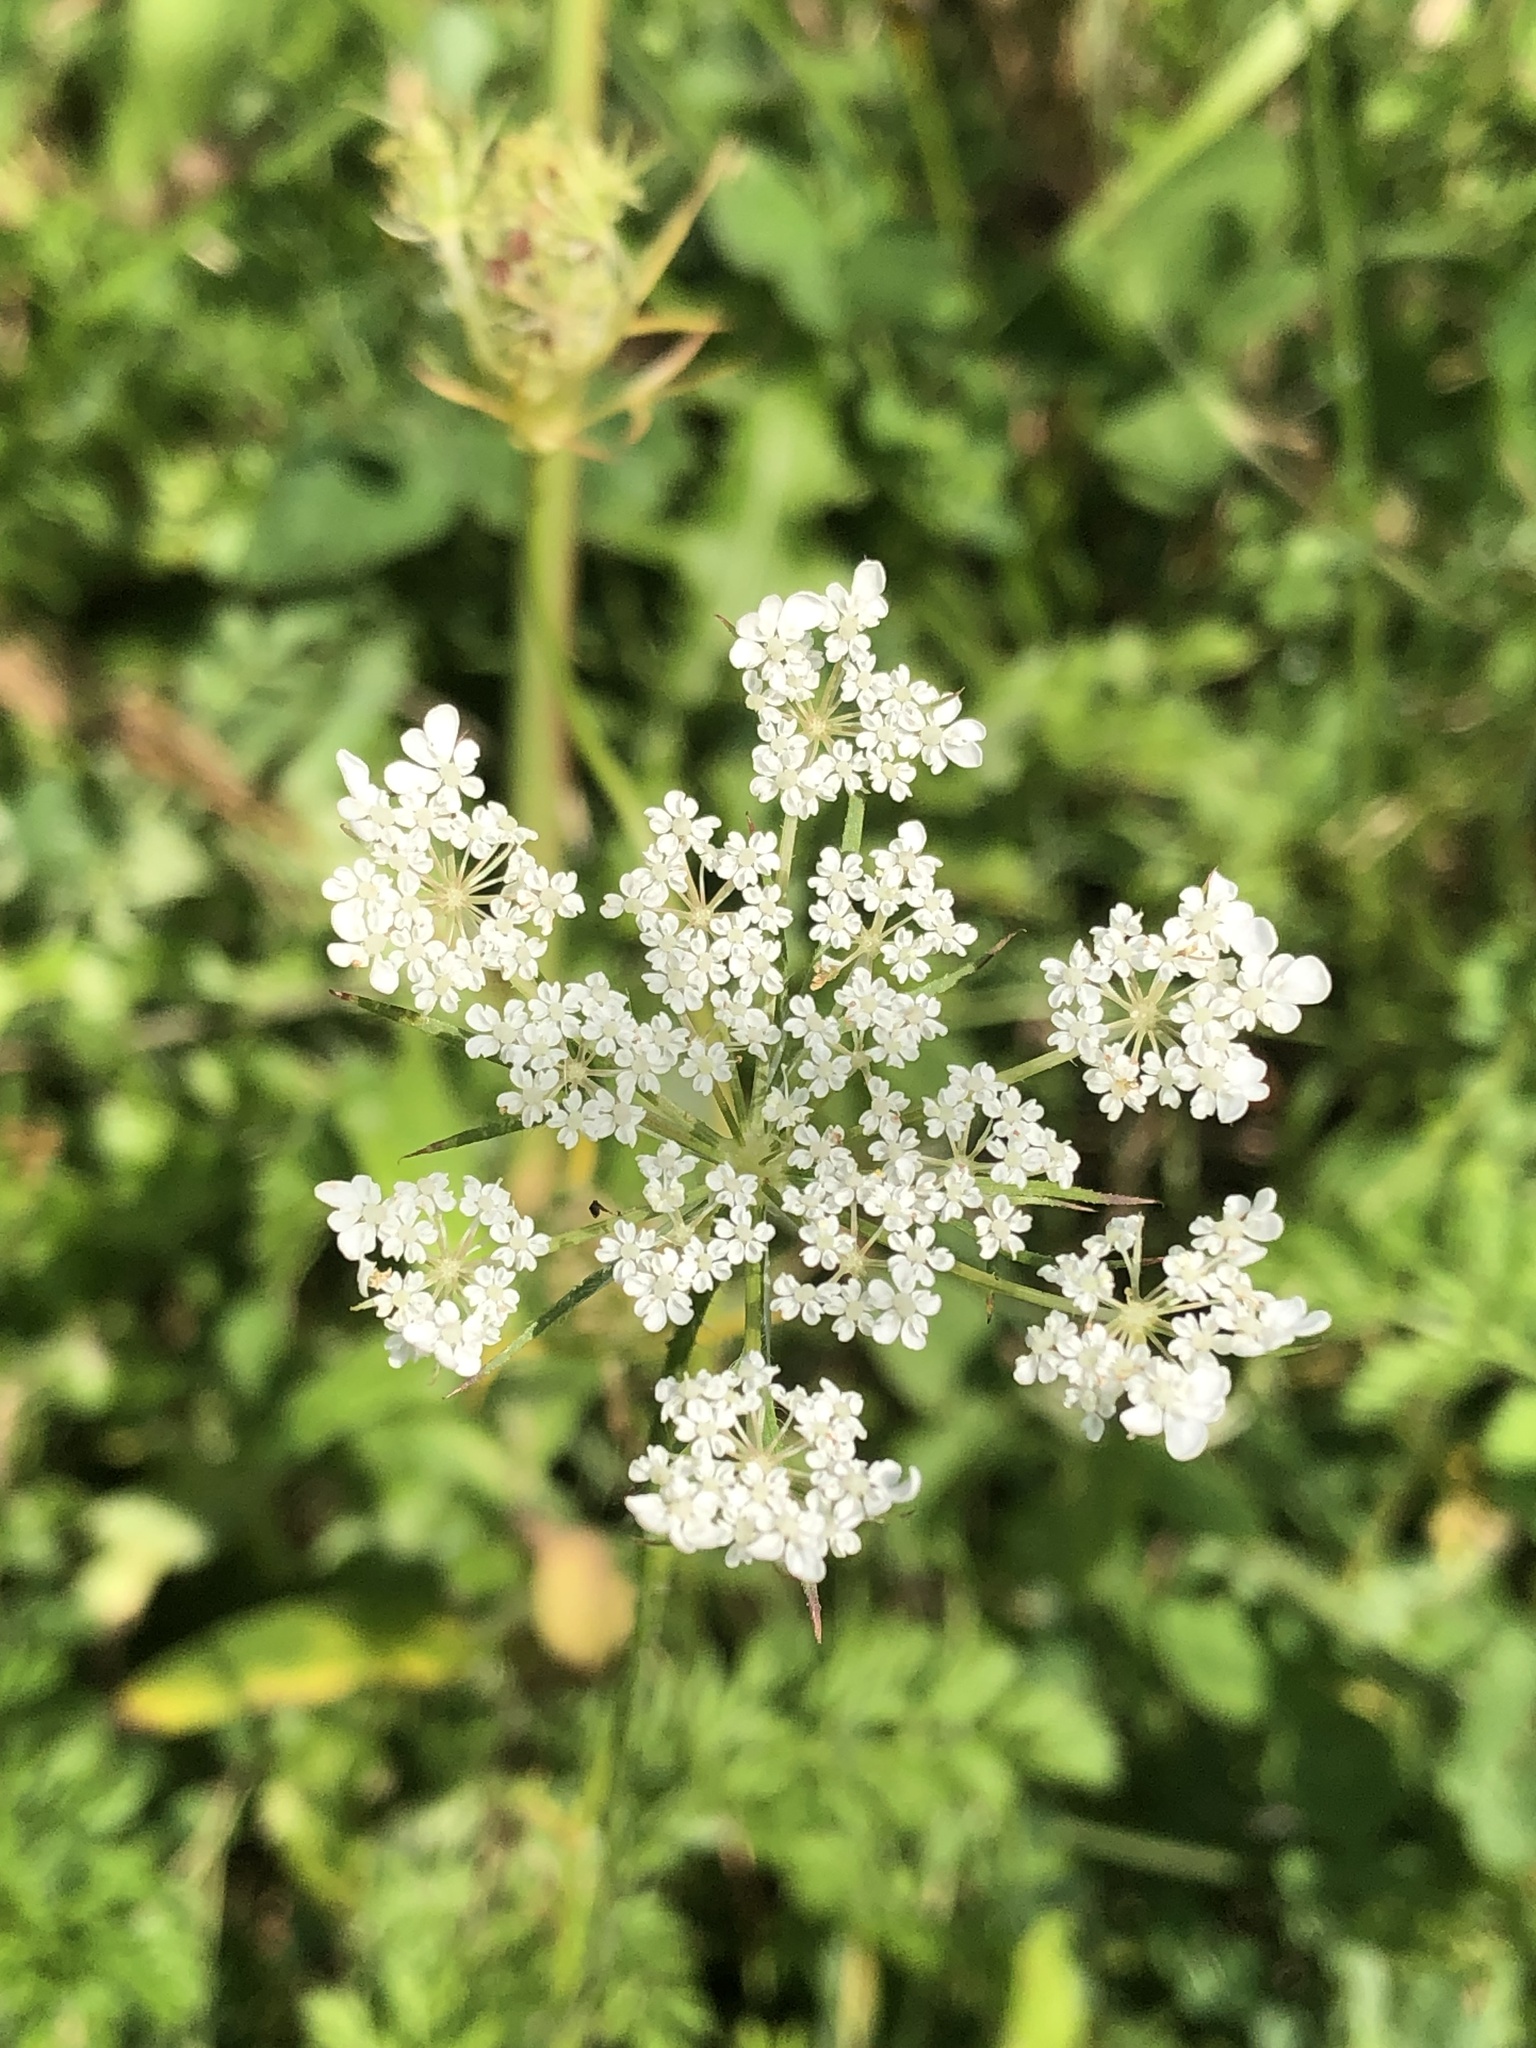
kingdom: Plantae
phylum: Tracheophyta
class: Magnoliopsida
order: Apiales
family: Apiaceae
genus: Daucus
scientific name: Daucus carota
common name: Wild carrot
